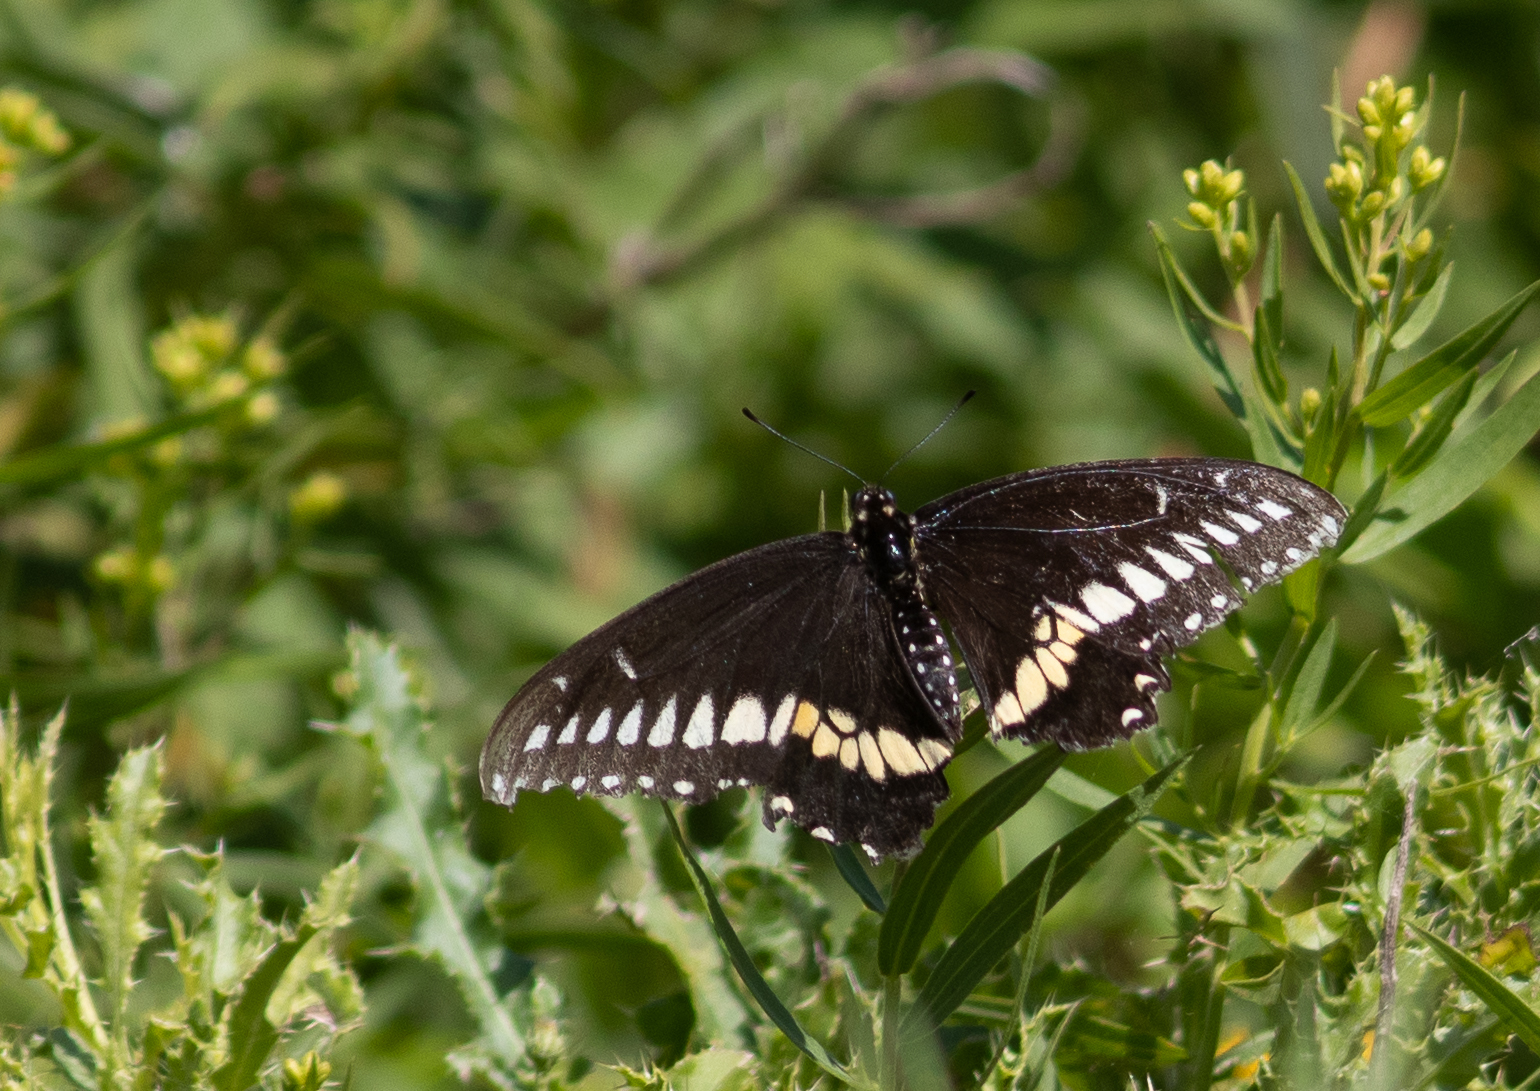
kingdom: Animalia
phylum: Arthropoda
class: Insecta
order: Lepidoptera
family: Papilionidae
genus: Papilio
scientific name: Papilio polyxenes
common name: Black swallowtail
